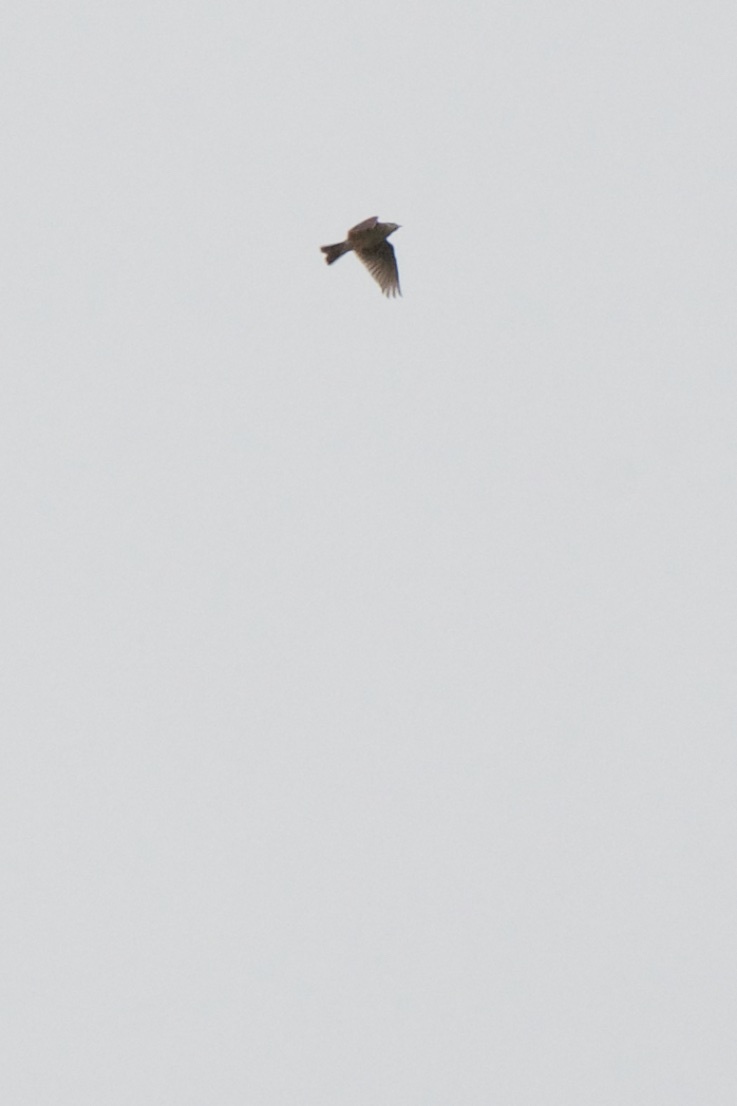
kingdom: Animalia
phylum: Chordata
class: Aves
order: Passeriformes
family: Alaudidae
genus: Alauda
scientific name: Alauda arvensis
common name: Eurasian skylark
